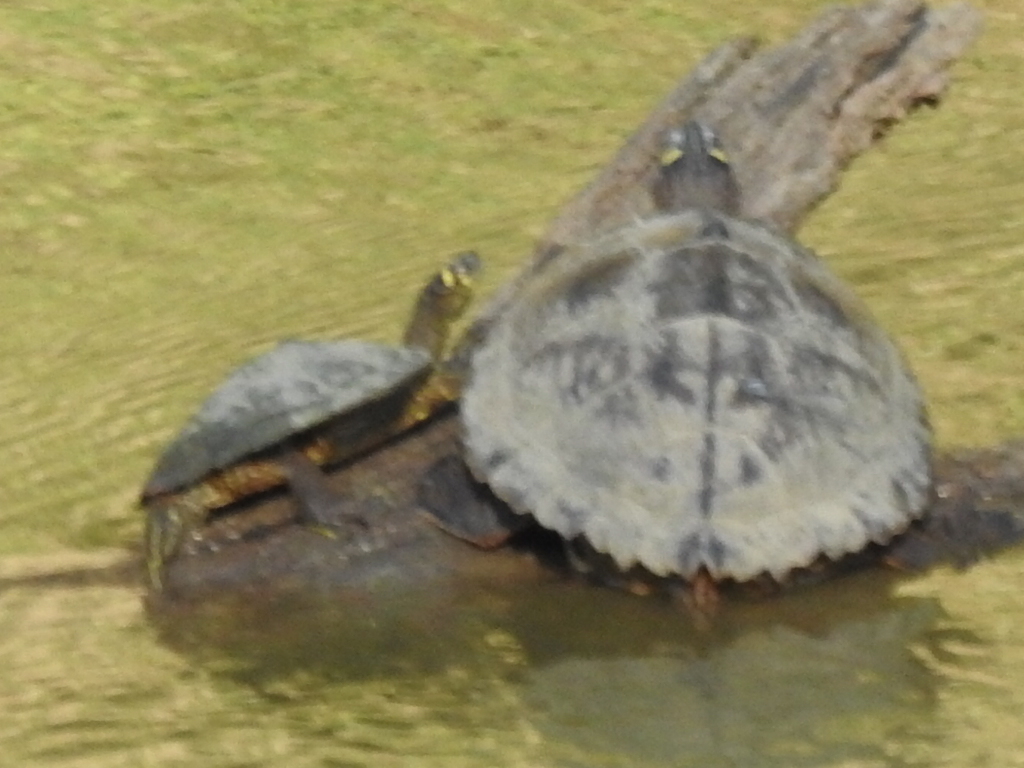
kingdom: Animalia
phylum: Chordata
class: Testudines
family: Emydidae
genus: Graptemys
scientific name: Graptemys ouachitensis
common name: Ouachita map turtle
